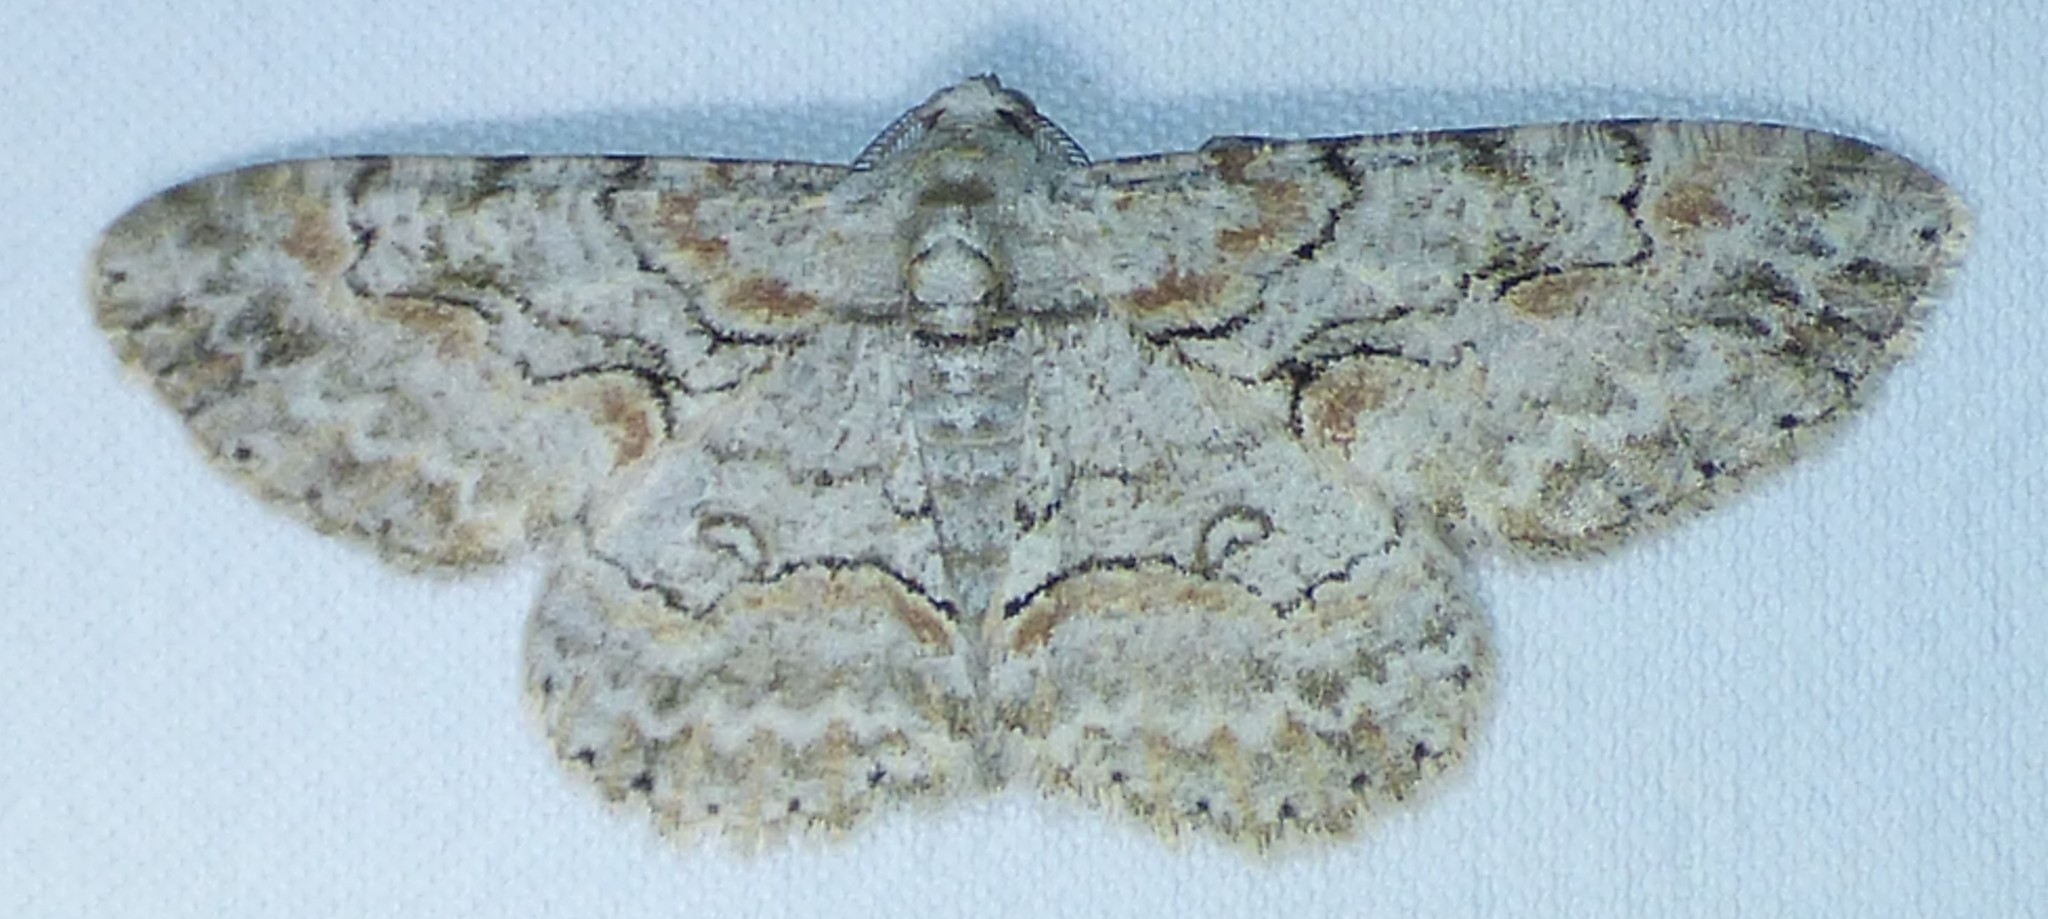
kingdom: Animalia
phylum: Arthropoda
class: Insecta
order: Lepidoptera
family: Geometridae
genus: Iridopsis
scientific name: Iridopsis defectaria
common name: Brown-shaded gray
